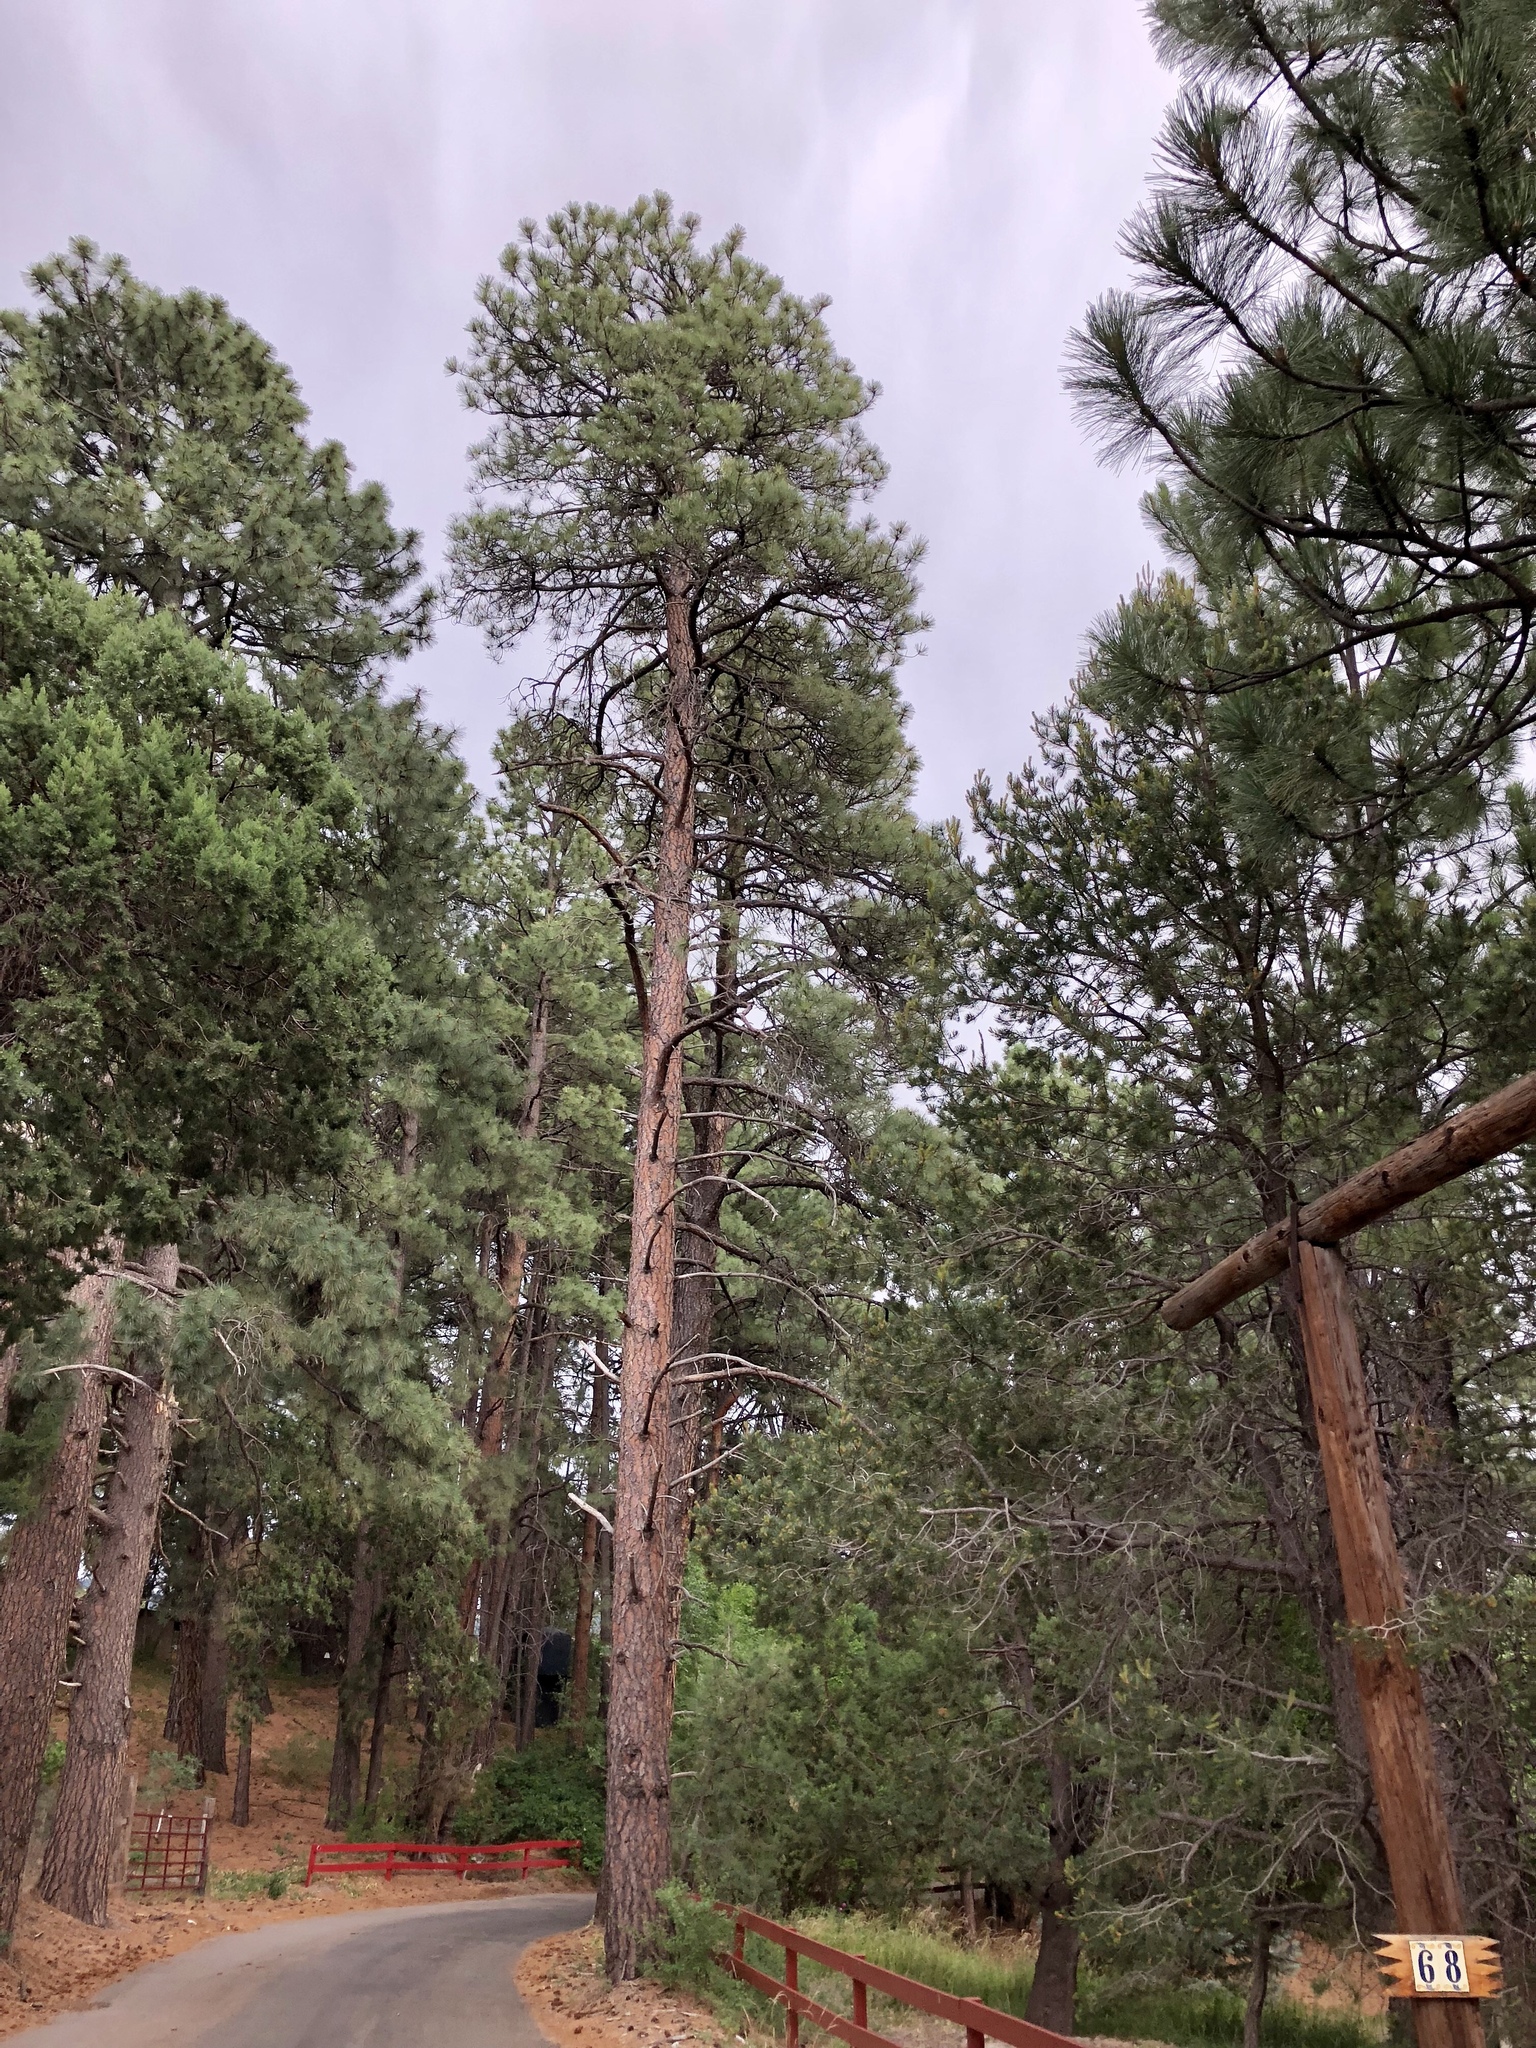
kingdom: Plantae
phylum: Tracheophyta
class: Pinopsida
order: Pinales
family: Pinaceae
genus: Pinus
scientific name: Pinus ponderosa
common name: Western yellow-pine
